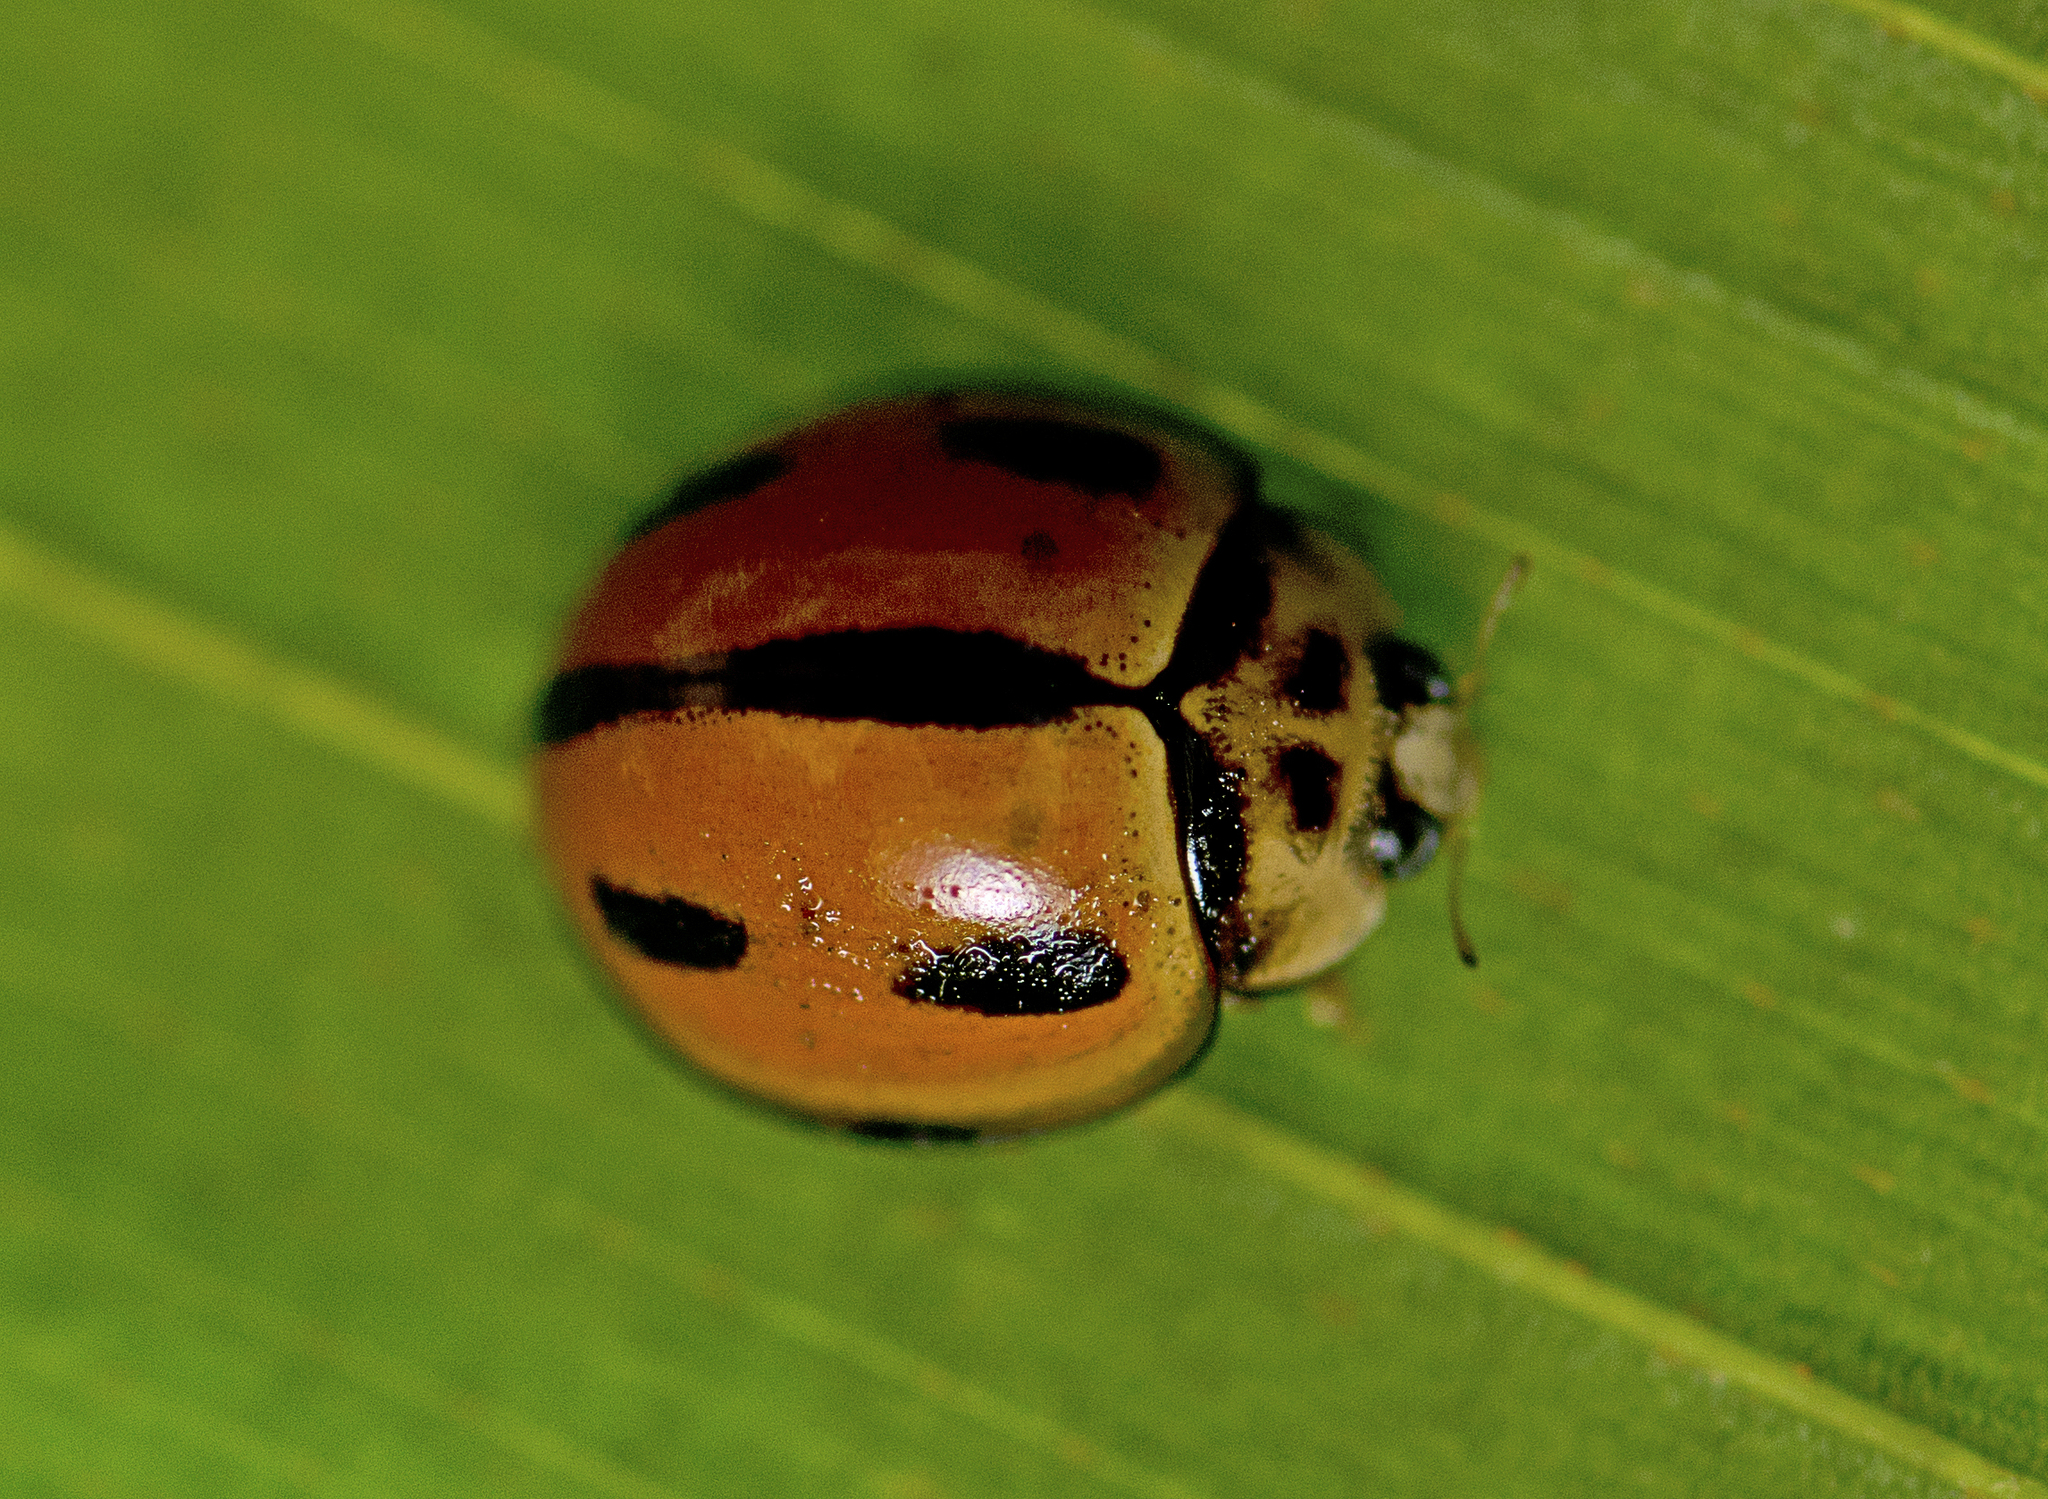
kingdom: Animalia
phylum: Arthropoda
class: Insecta
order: Coleoptera
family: Coccinellidae
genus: Coelophora
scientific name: Coelophora inaequalis
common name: Common australian lady beetle
